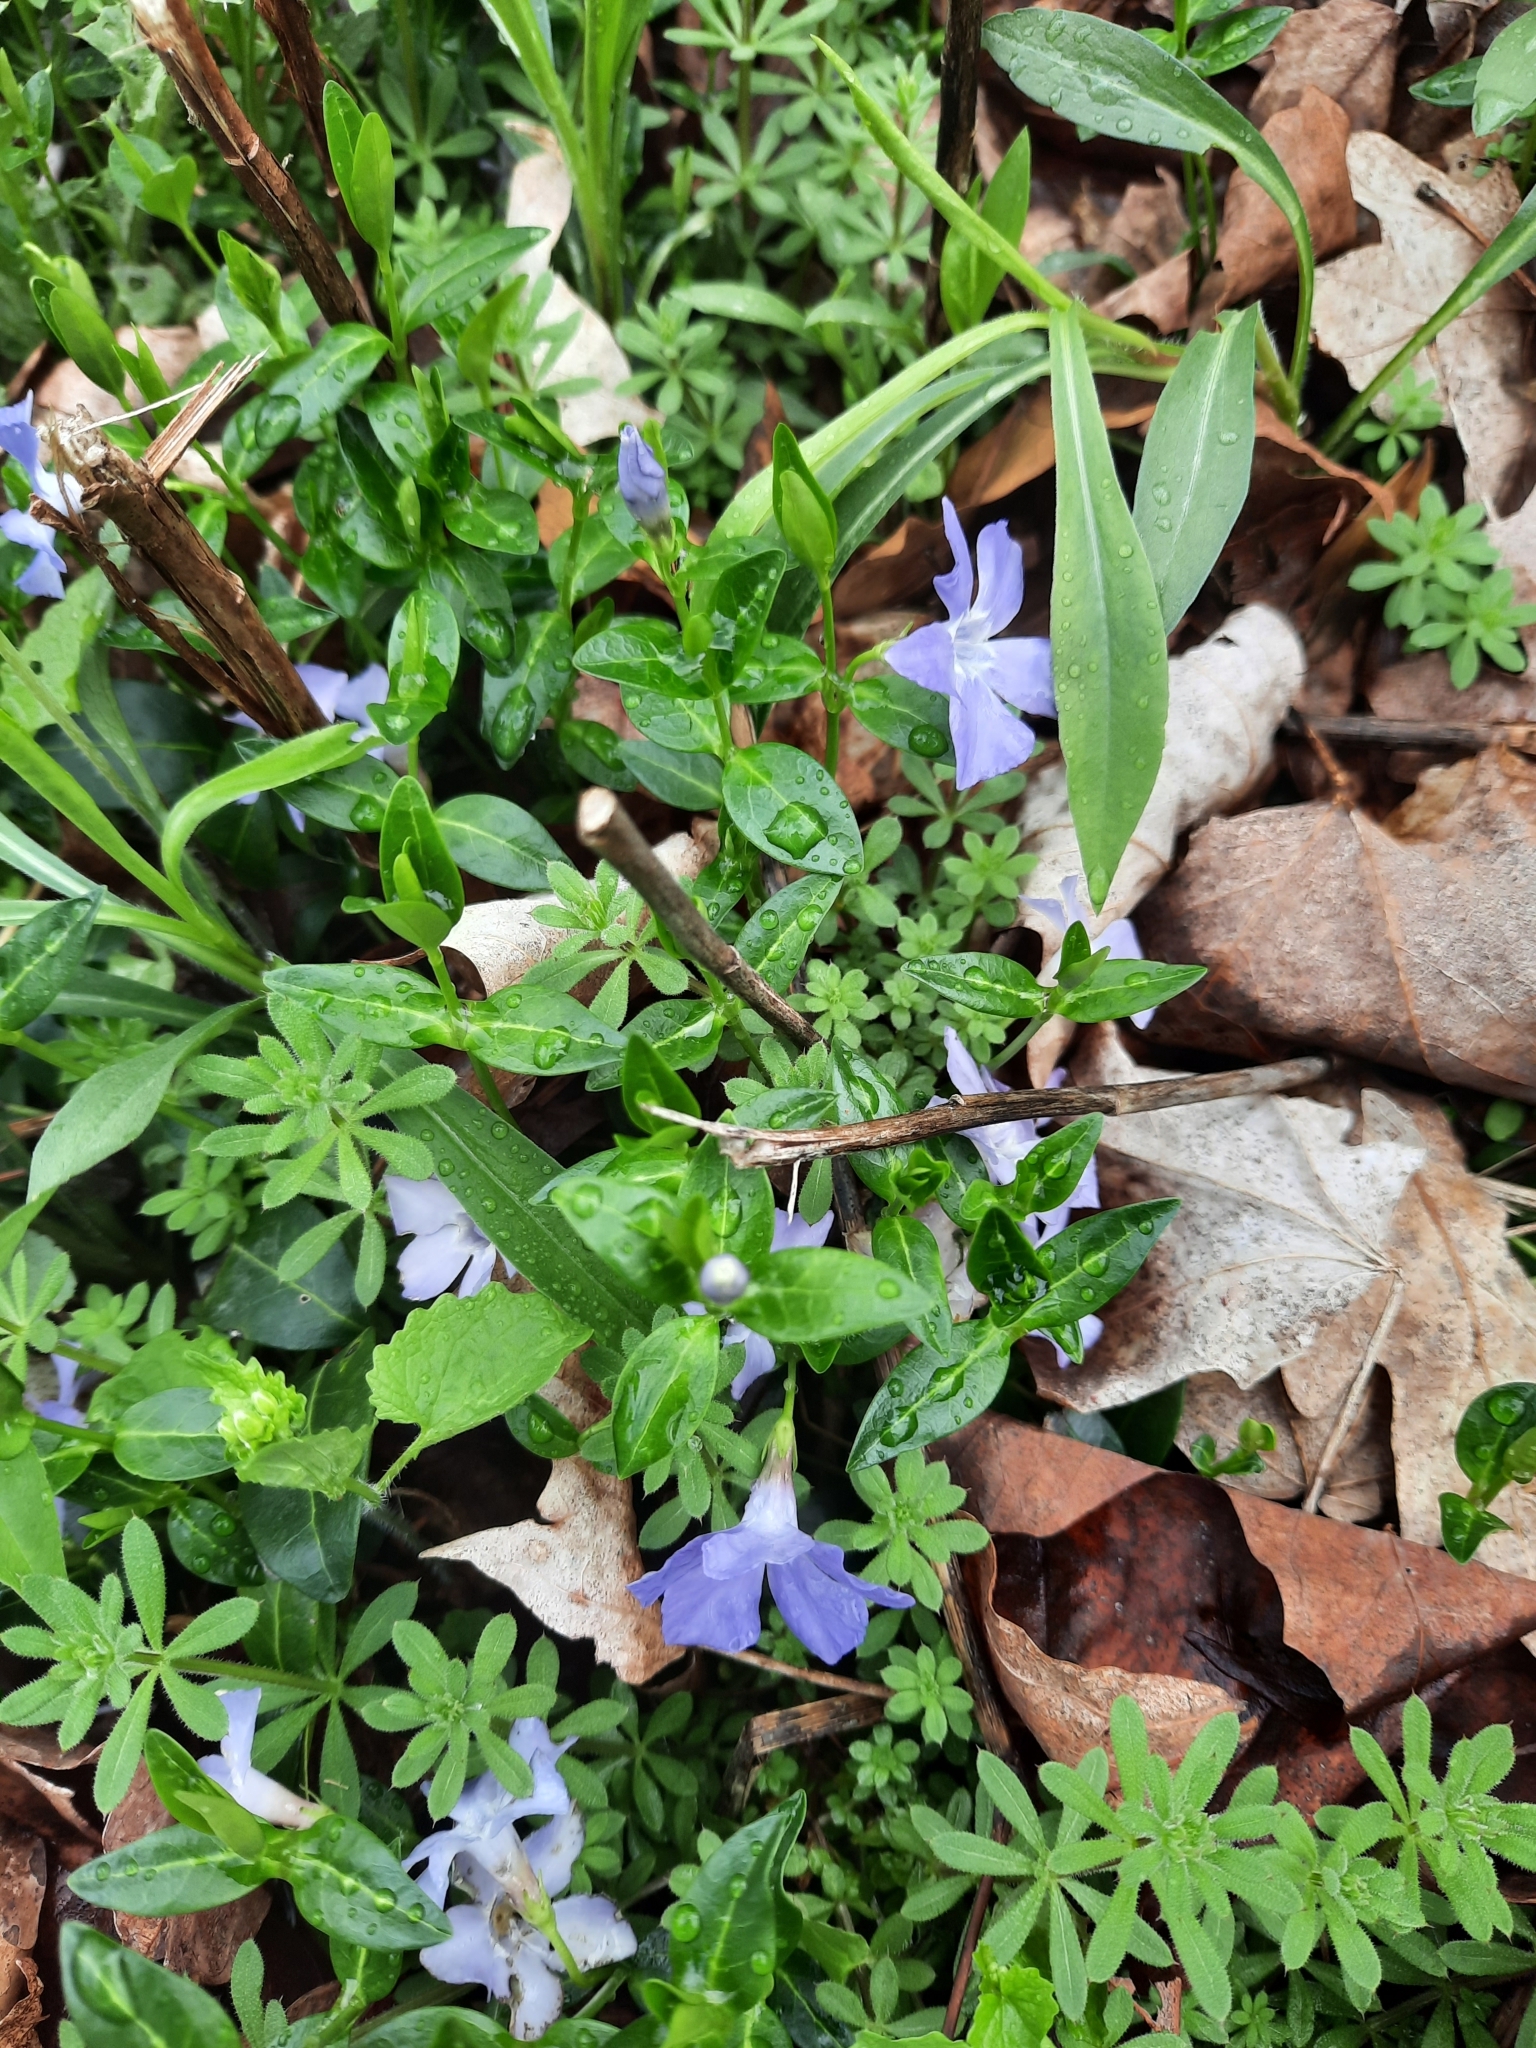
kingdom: Plantae
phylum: Tracheophyta
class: Magnoliopsida
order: Gentianales
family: Apocynaceae
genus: Vinca
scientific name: Vinca minor
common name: Lesser periwinkle
